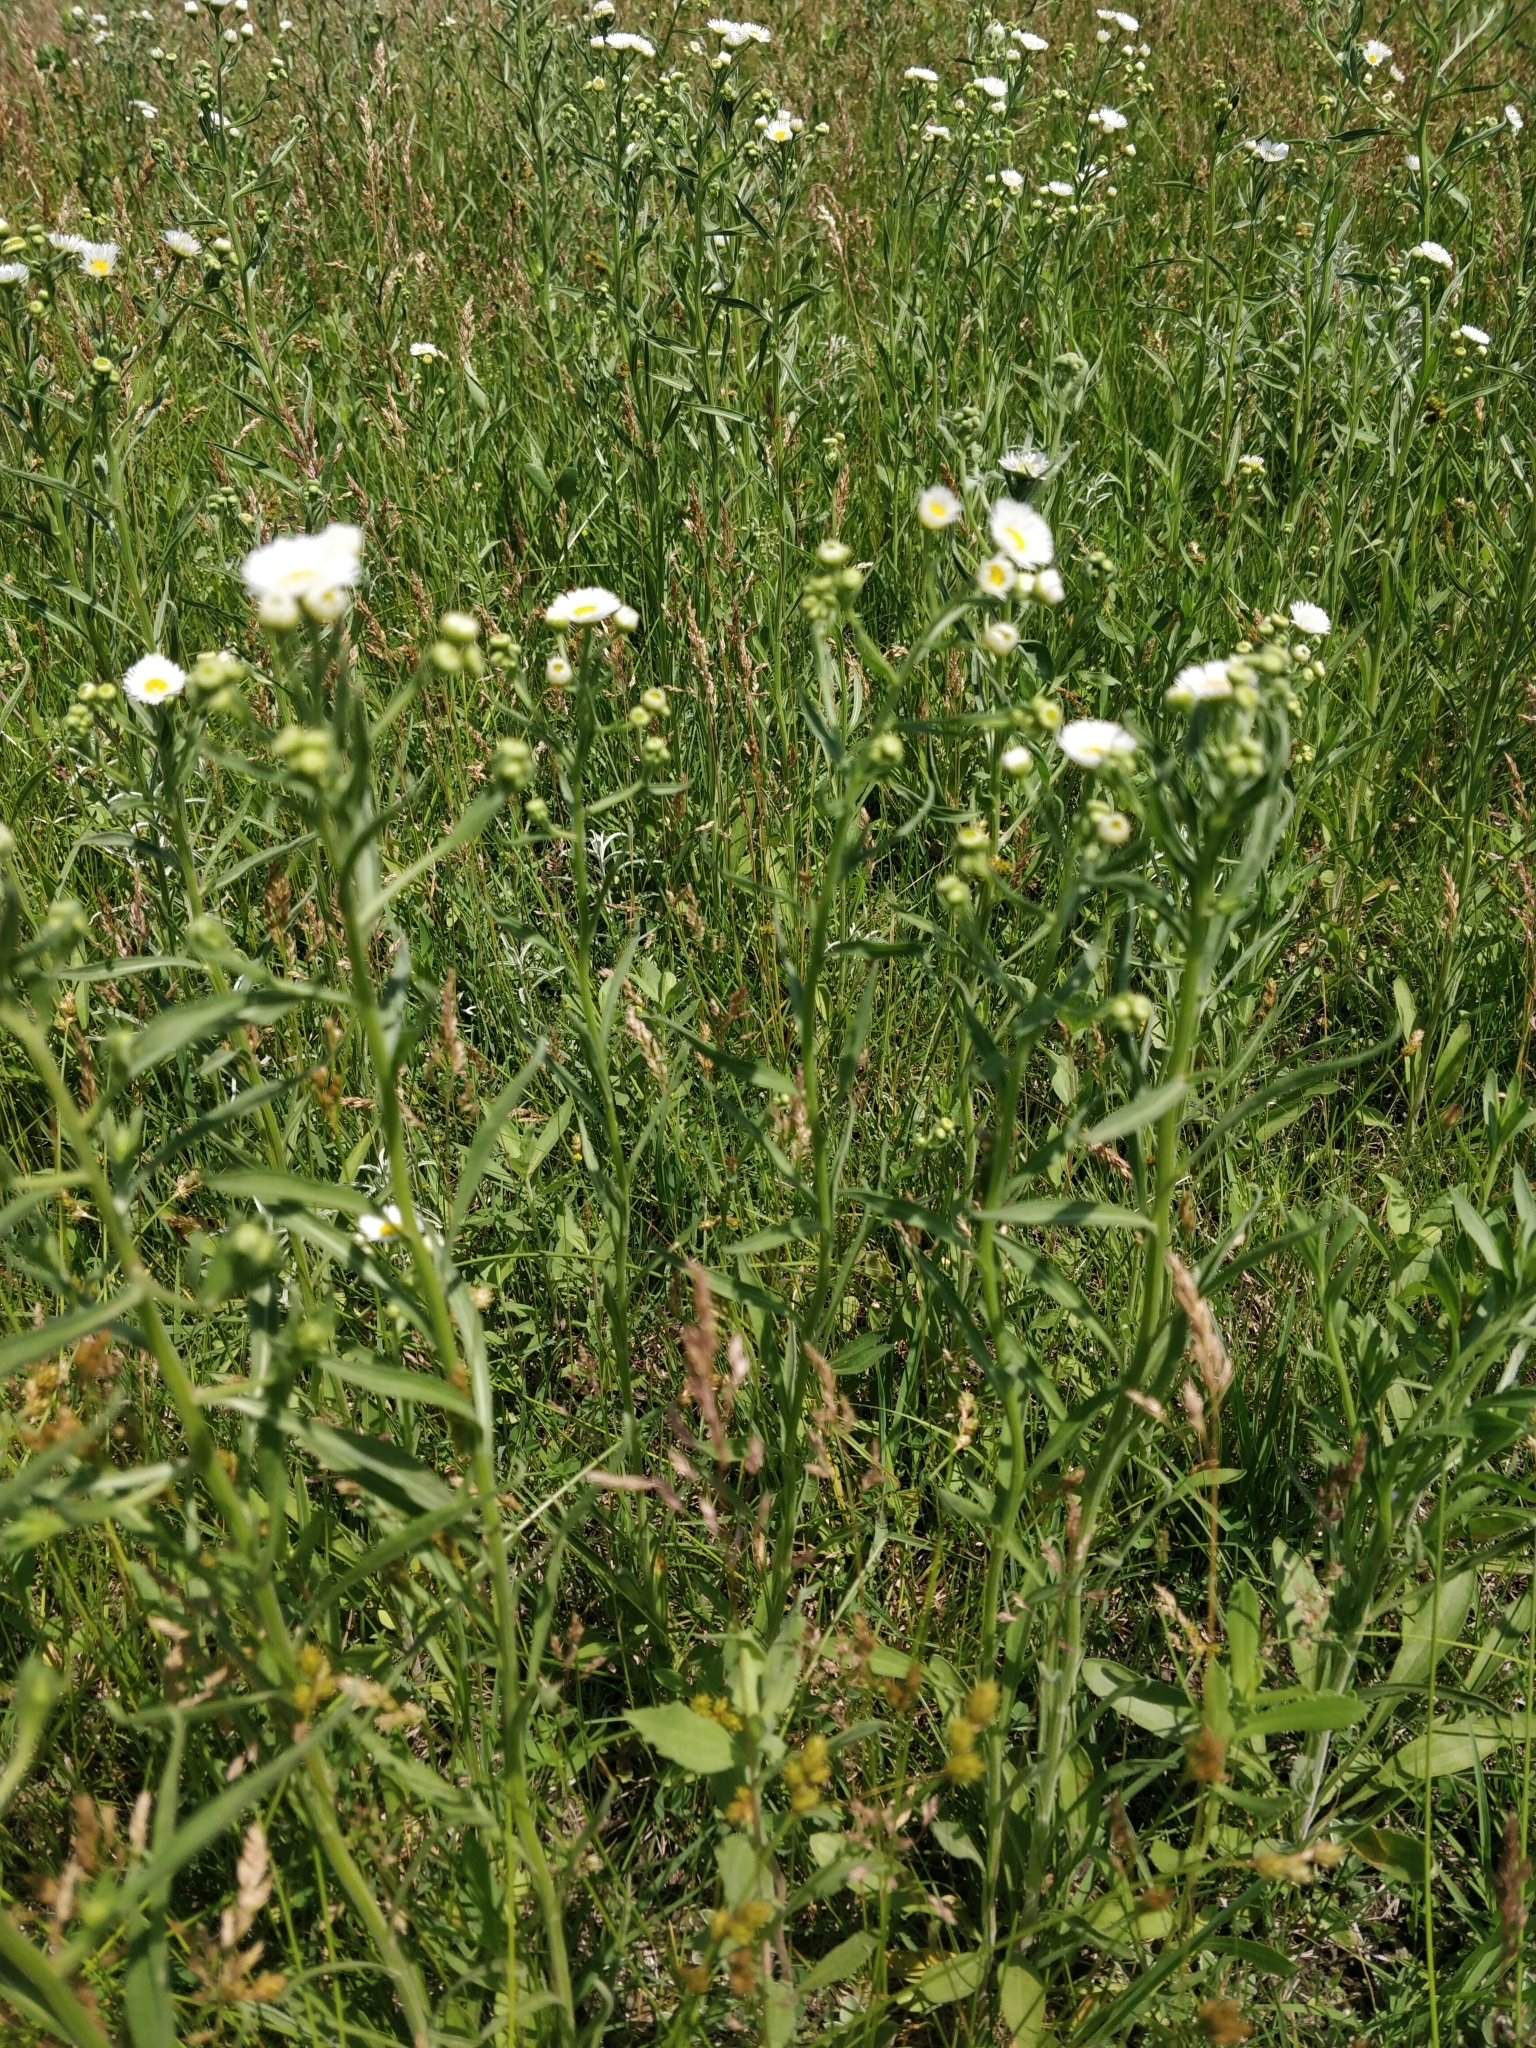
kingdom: Plantae
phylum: Tracheophyta
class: Magnoliopsida
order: Asterales
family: Asteraceae
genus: Erigeron
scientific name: Erigeron strigosus
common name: Common eastern fleabane
